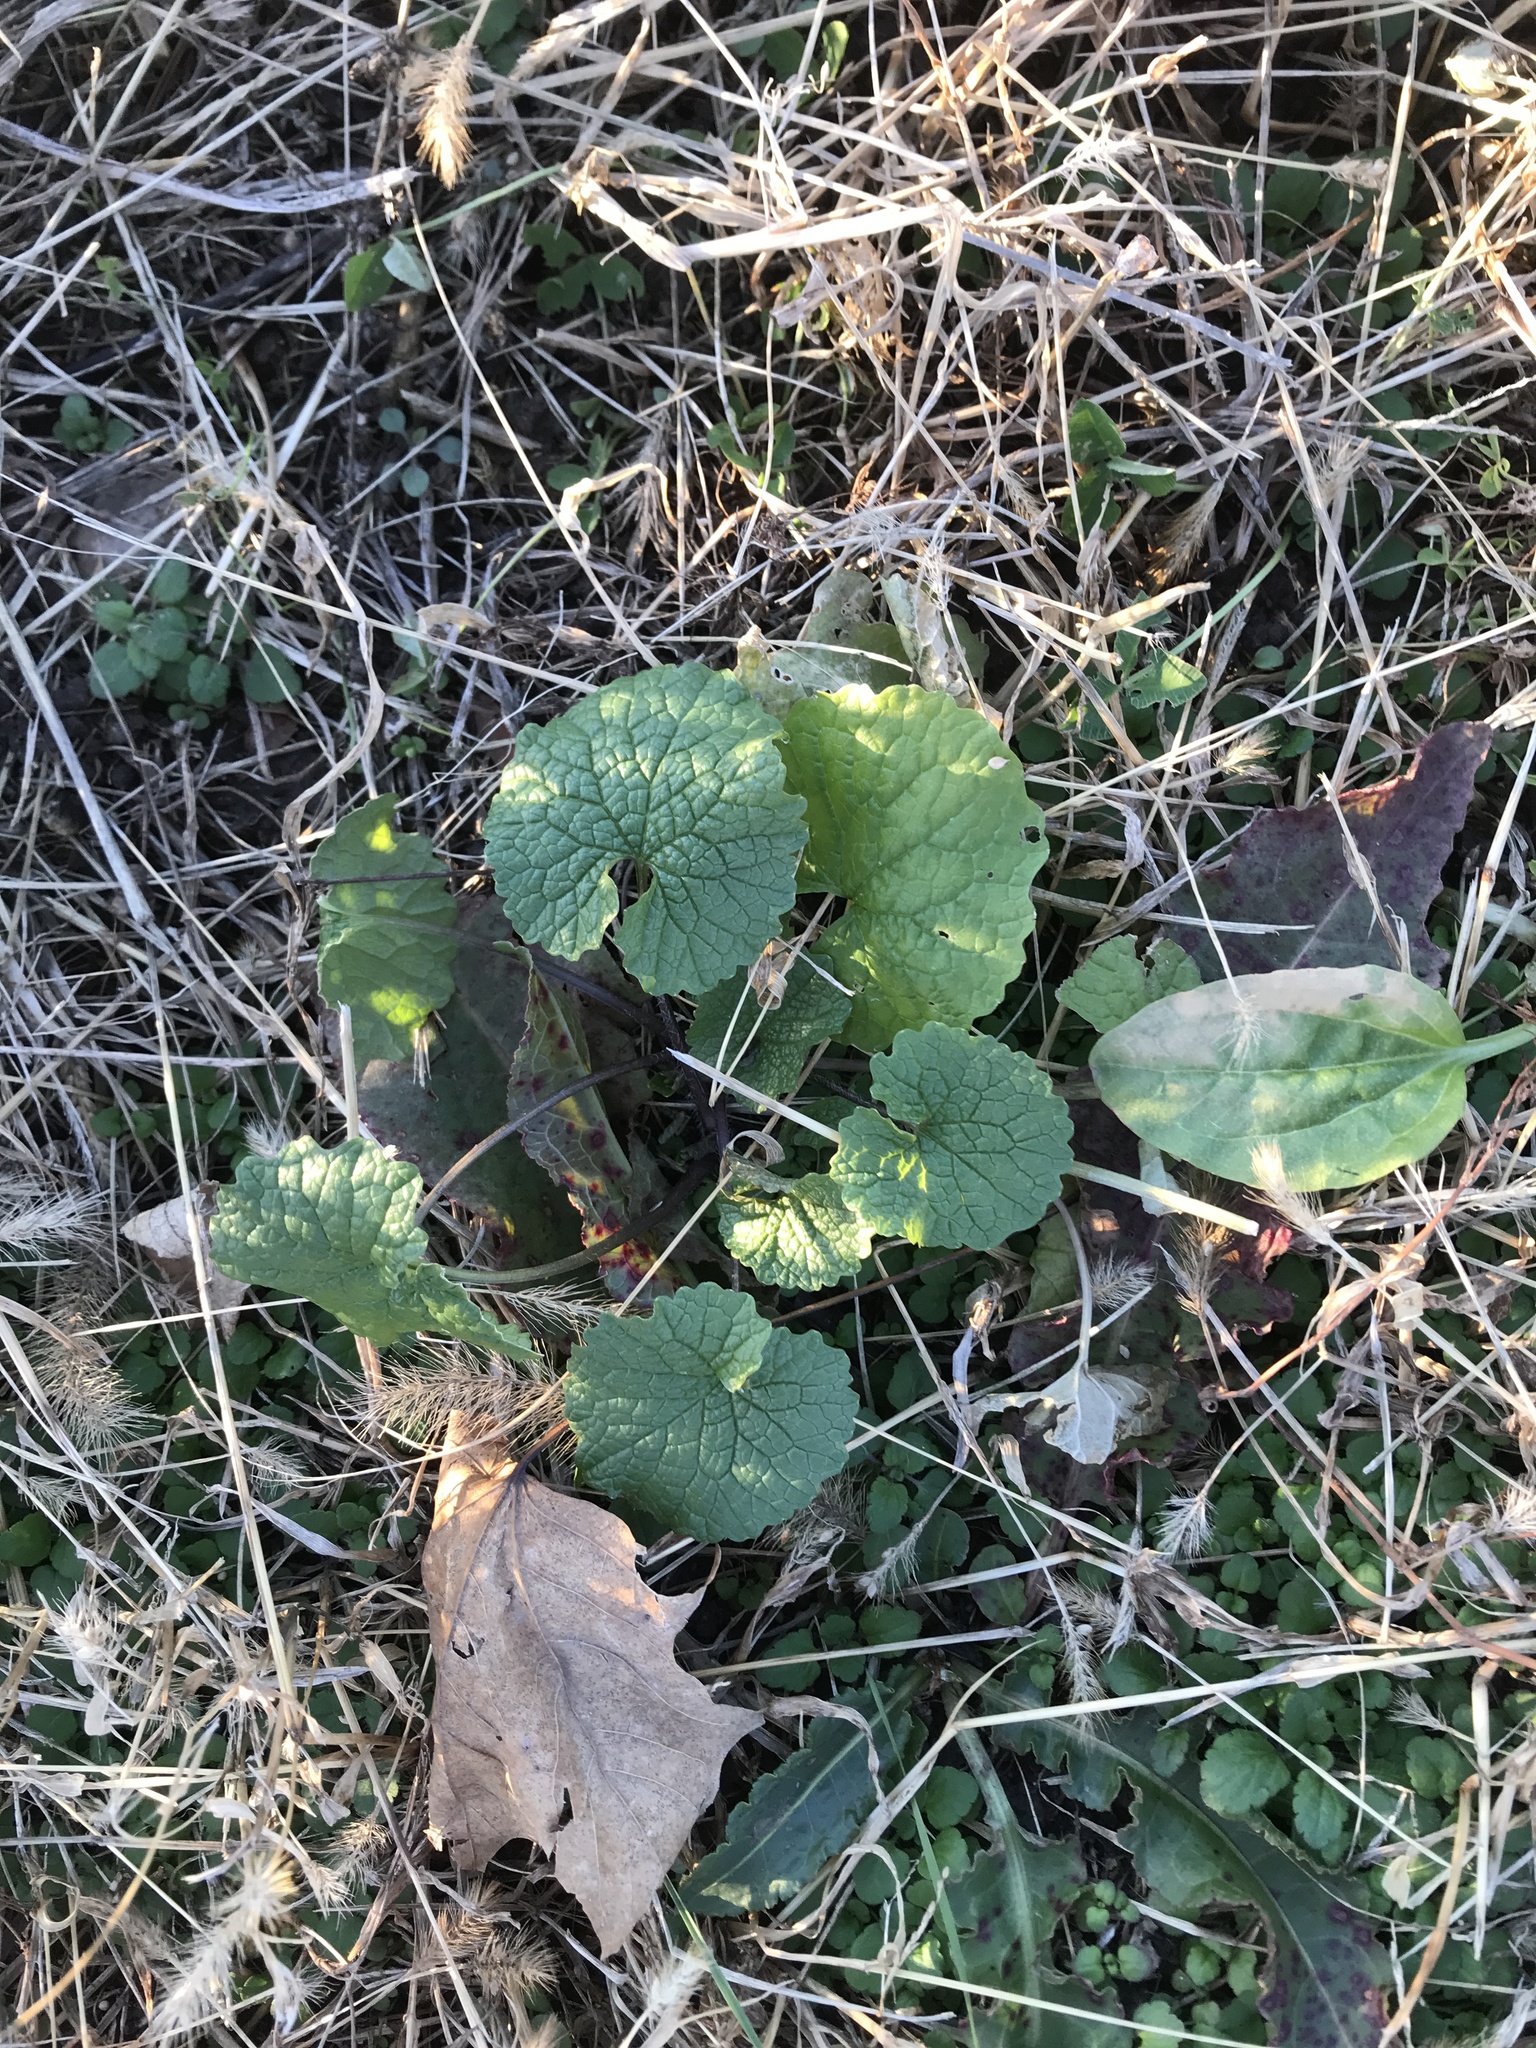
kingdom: Plantae
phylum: Tracheophyta
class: Magnoliopsida
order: Brassicales
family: Brassicaceae
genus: Alliaria
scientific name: Alliaria petiolata
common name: Garlic mustard
